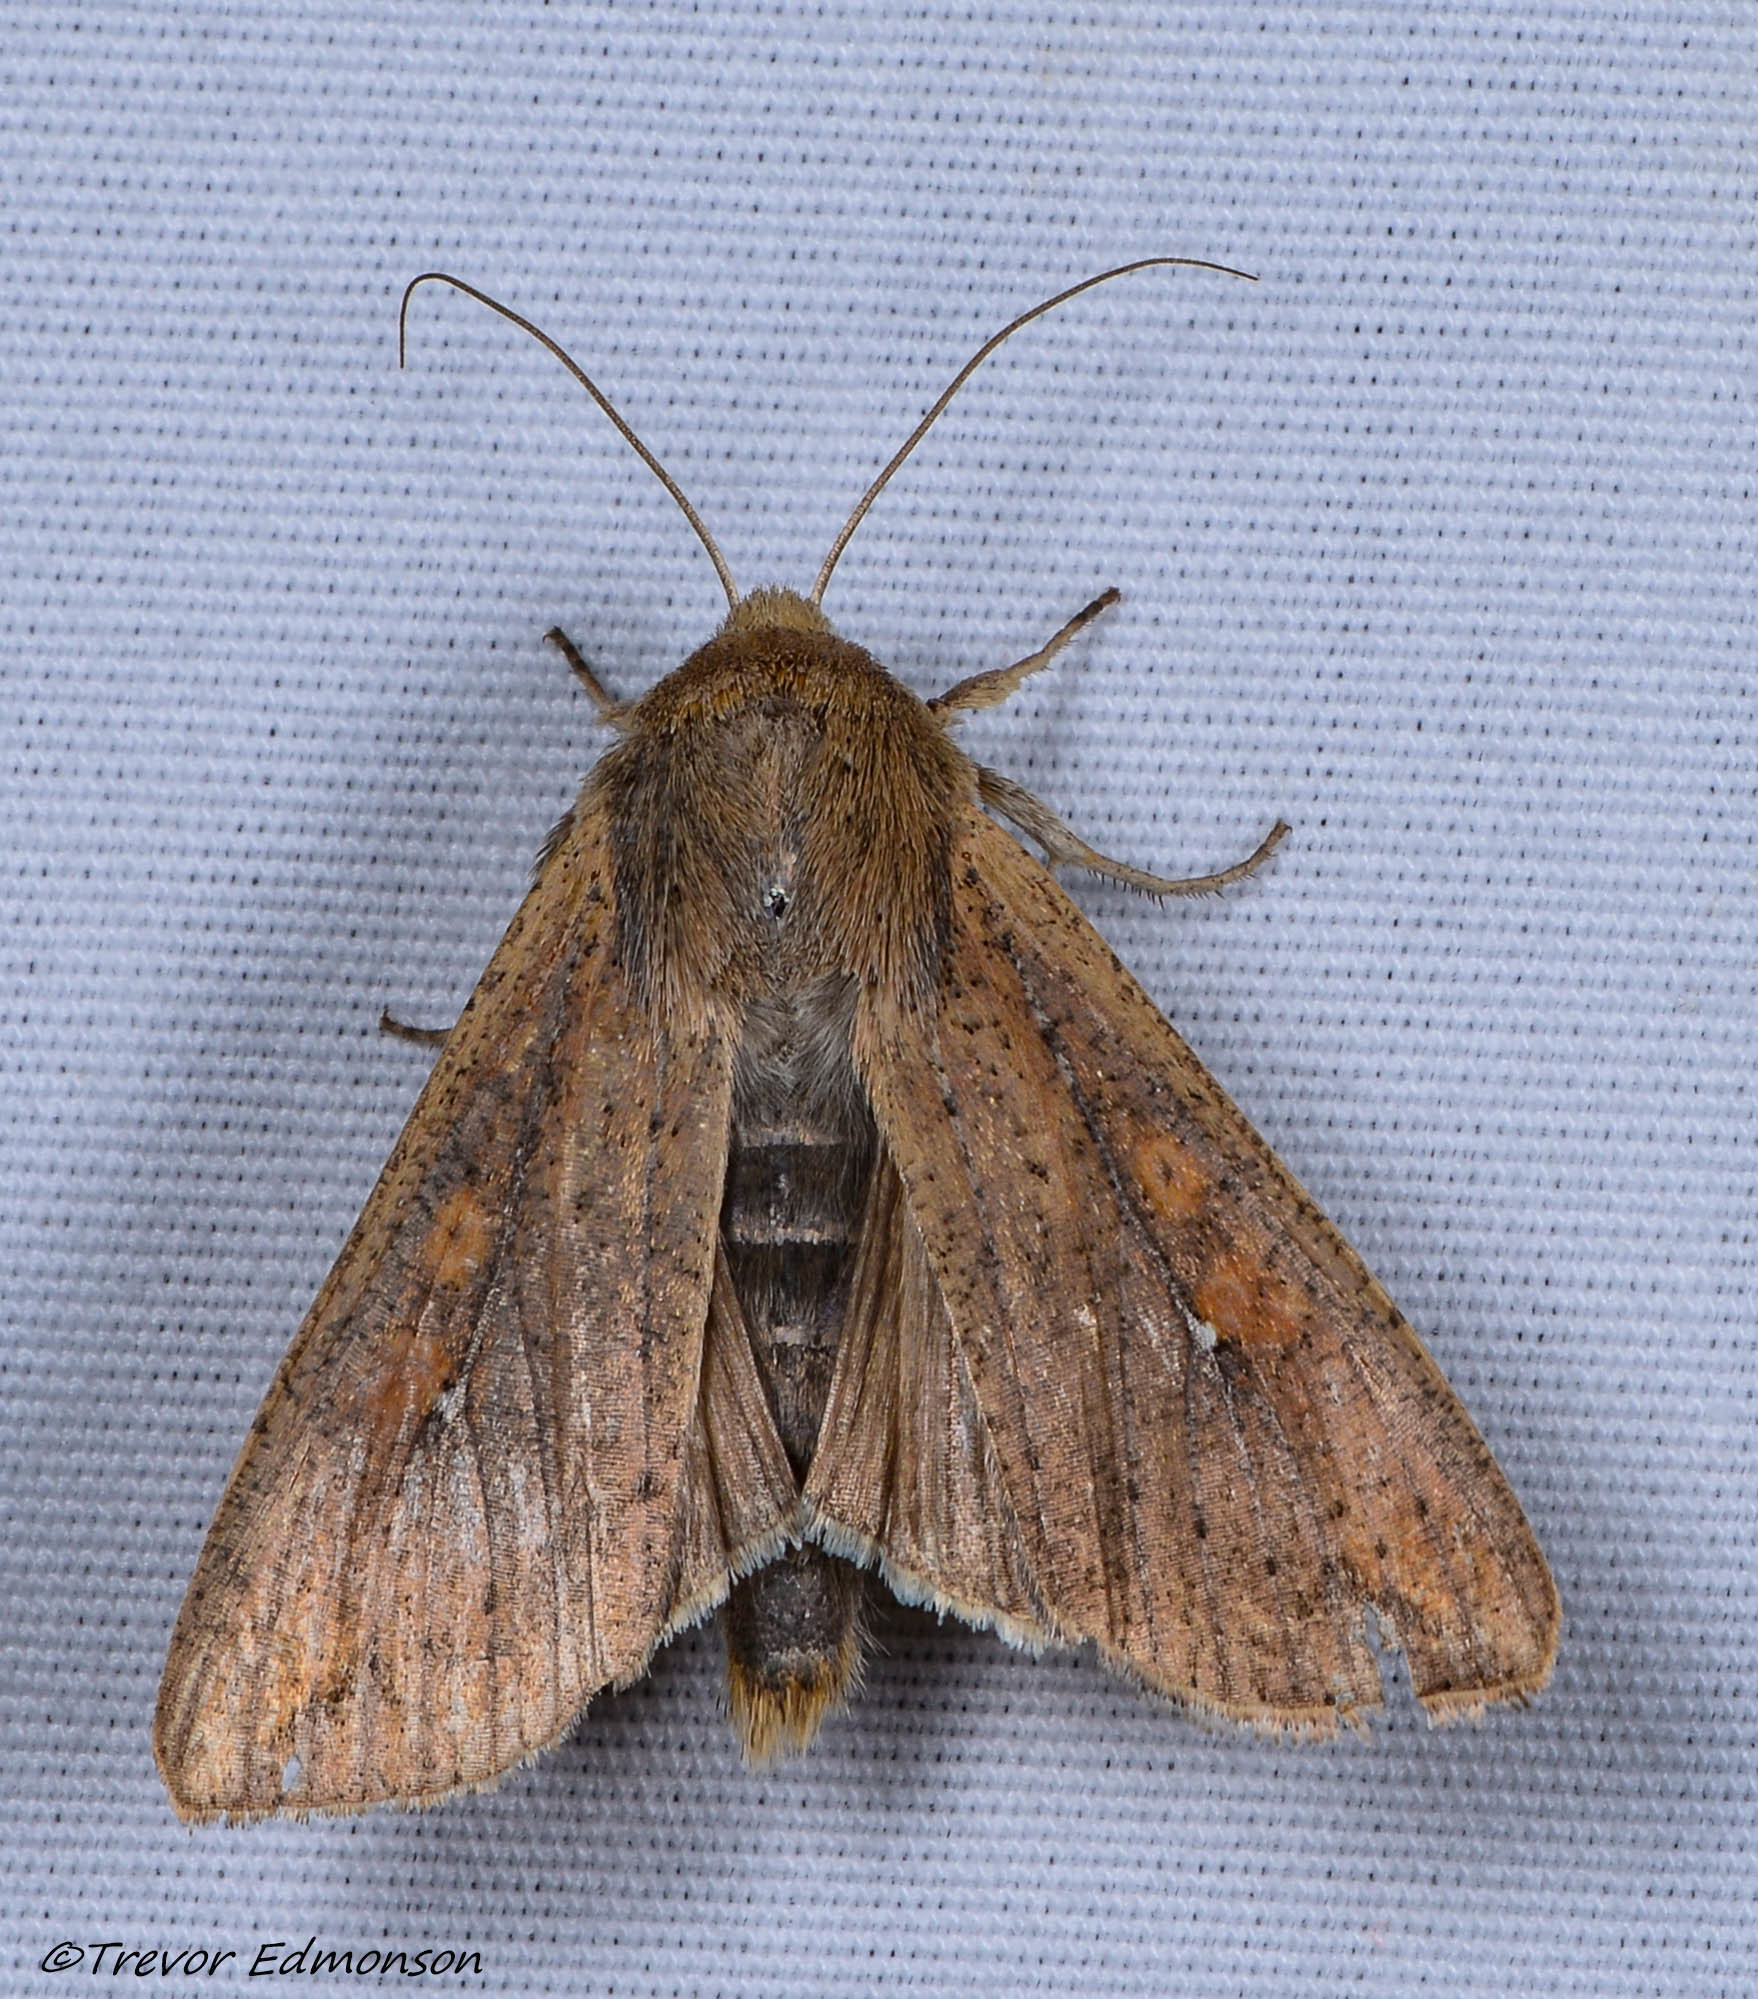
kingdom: Animalia
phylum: Arthropoda
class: Insecta
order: Lepidoptera
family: Noctuidae
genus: Mythimna
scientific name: Mythimna unipuncta
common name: White-speck
